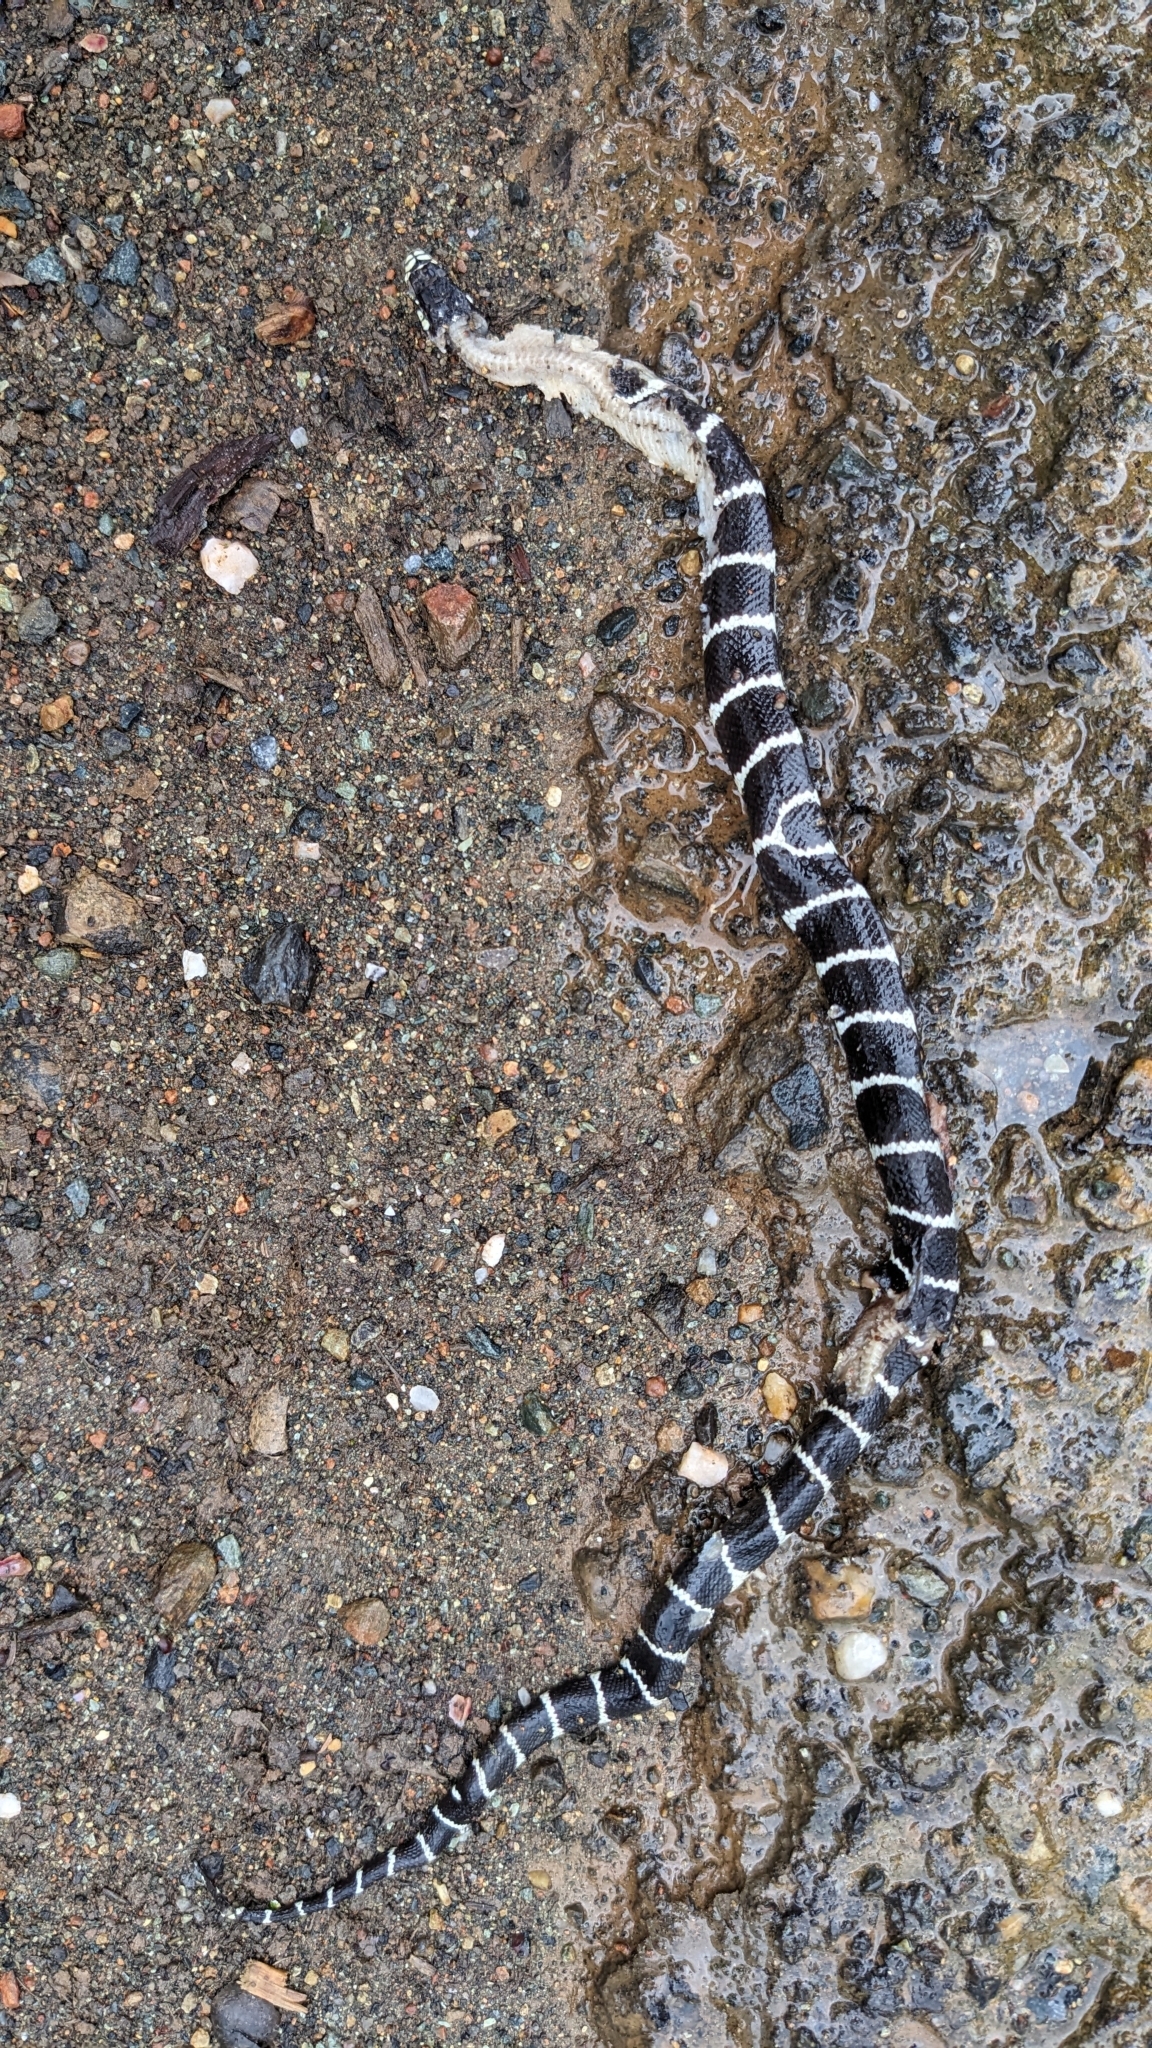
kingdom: Animalia
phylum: Chordata
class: Squamata
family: Colubridae
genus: Lampropeltis
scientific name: Lampropeltis californiae
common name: California kingsnake
